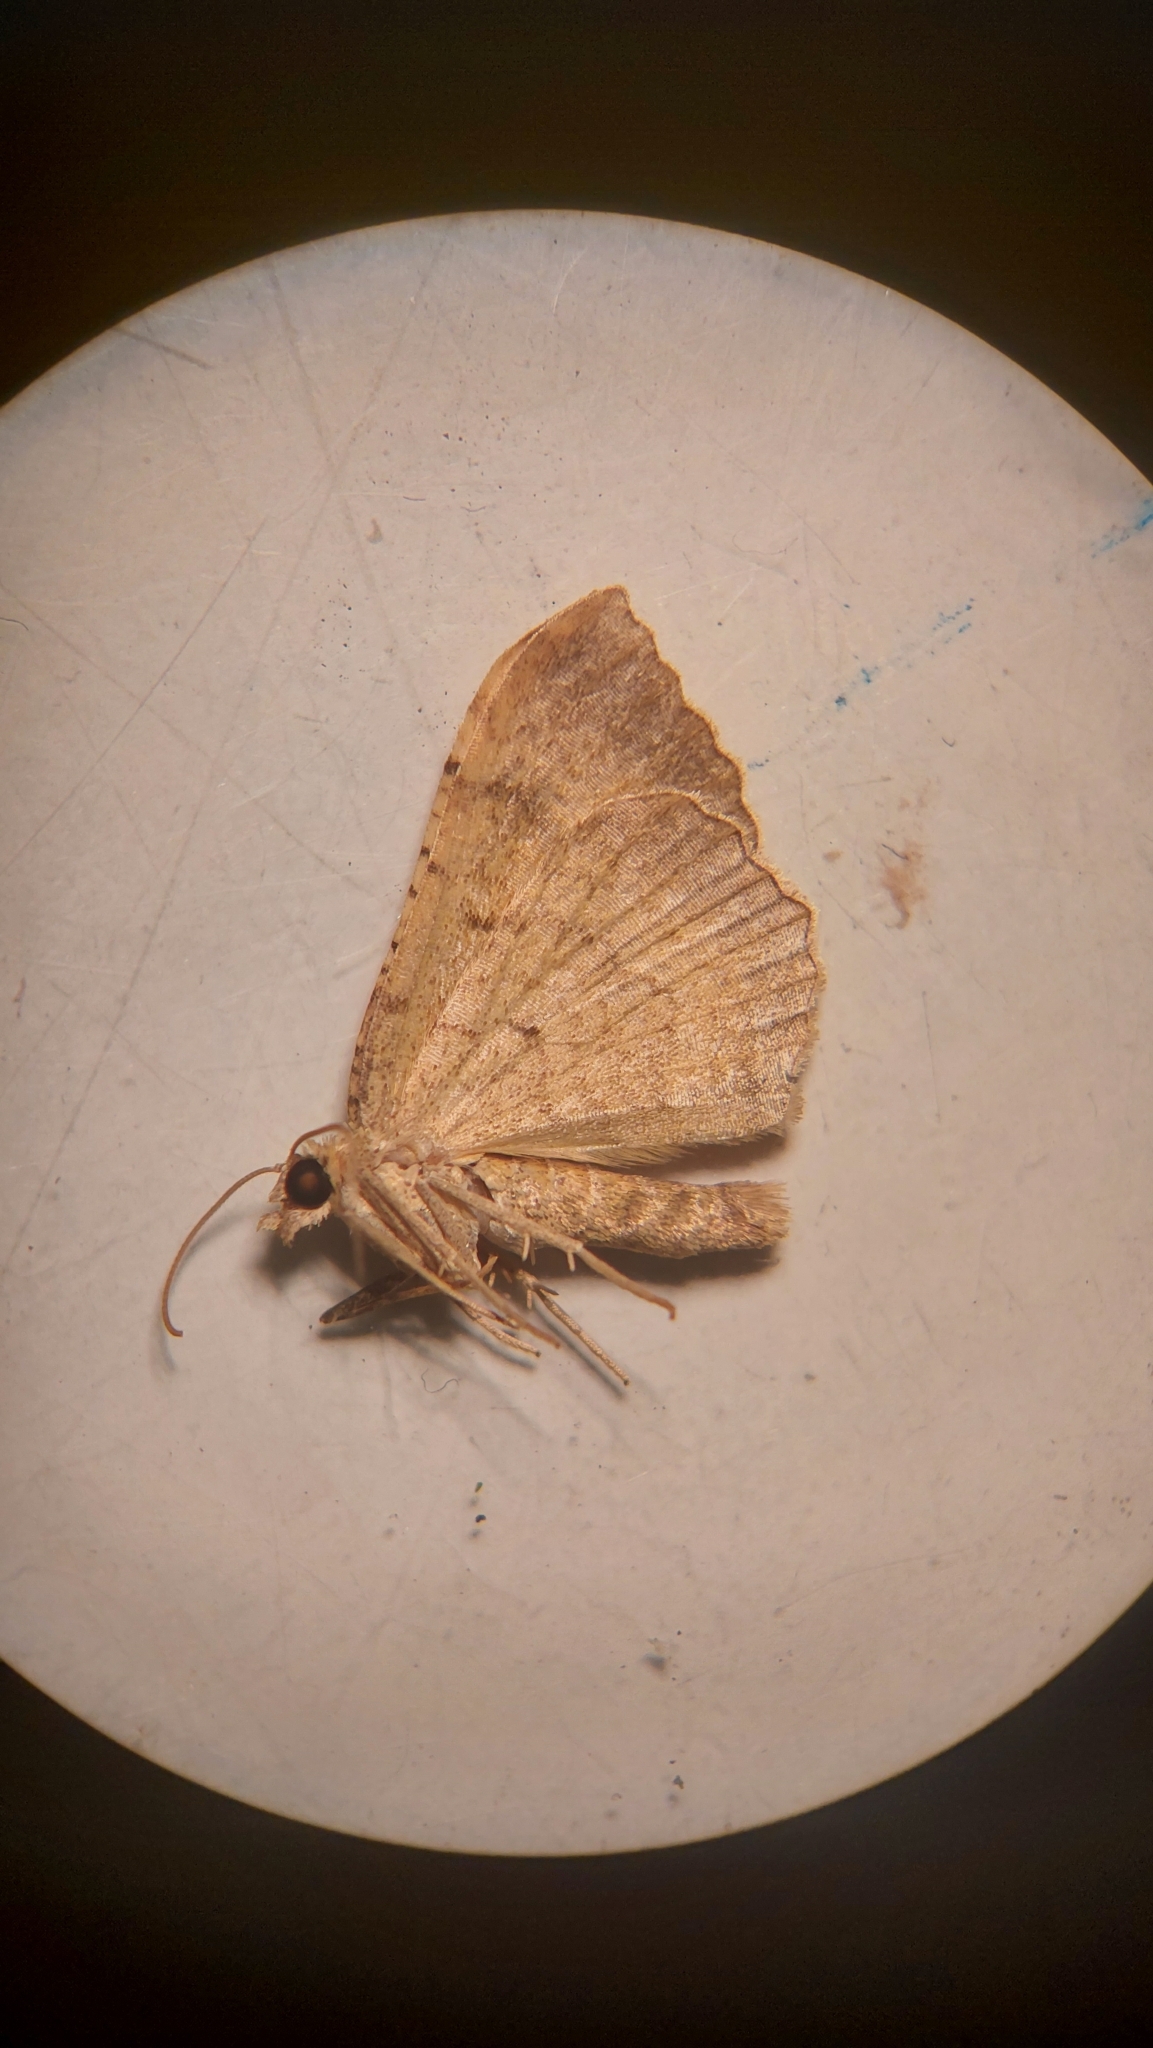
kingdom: Animalia
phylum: Arthropoda
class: Insecta
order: Lepidoptera
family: Geometridae
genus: Camptogramma
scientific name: Camptogramma bilineata
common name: Yellow shell
